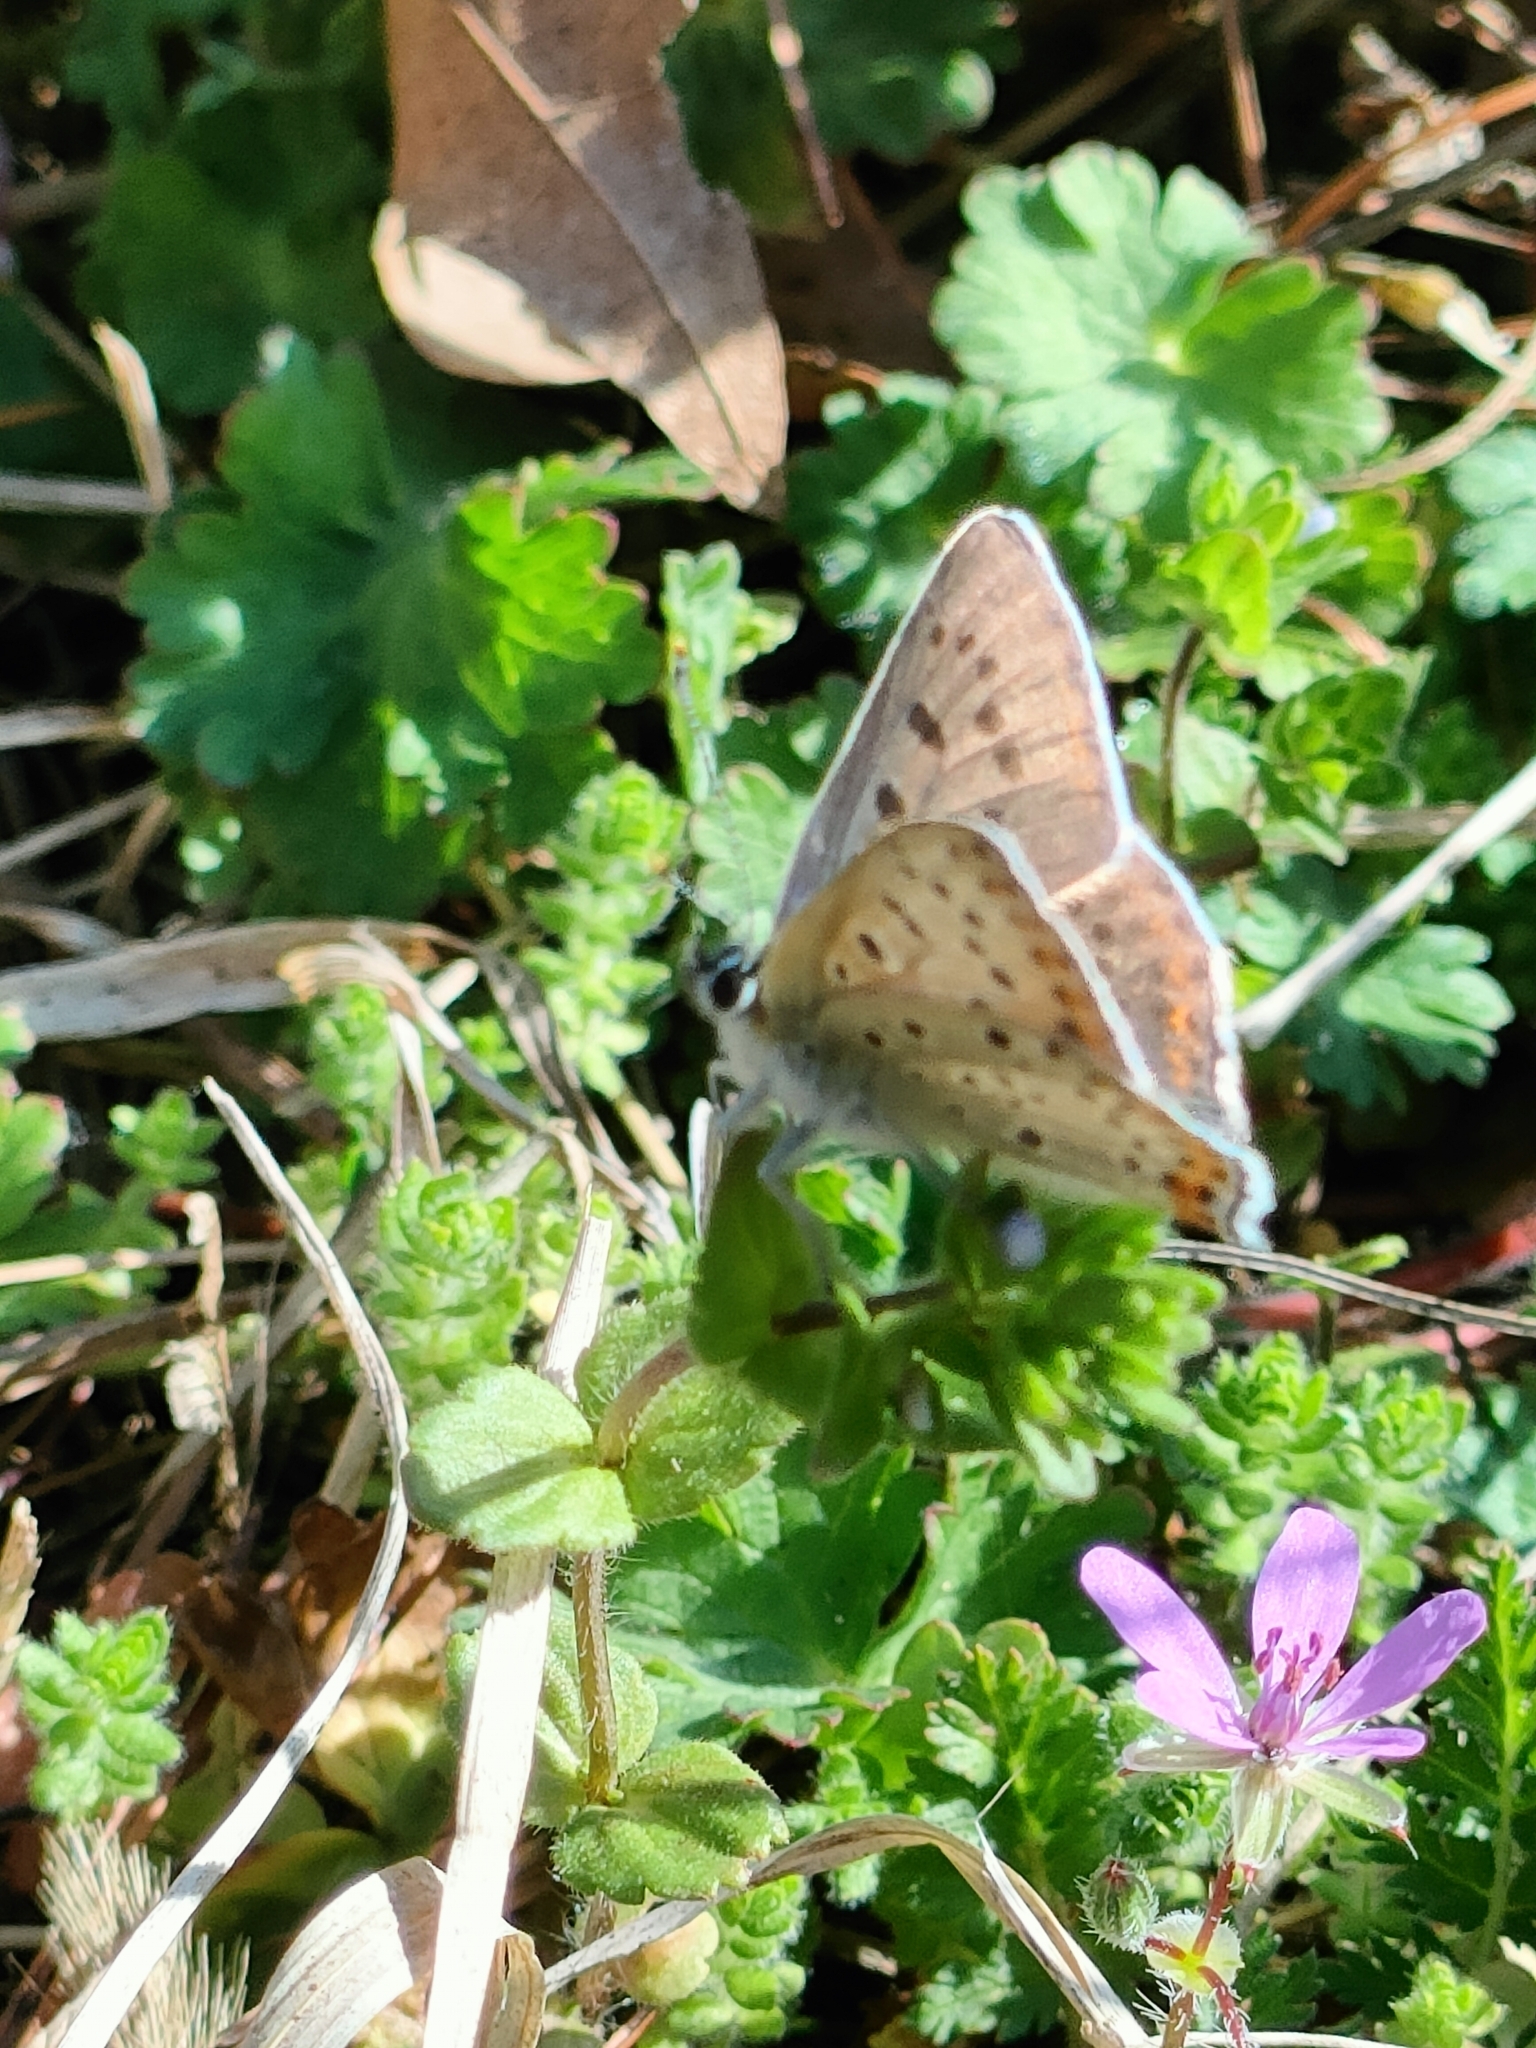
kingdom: Animalia
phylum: Arthropoda
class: Insecta
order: Lepidoptera
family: Lycaenidae
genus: Loweia
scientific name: Loweia tityrus
